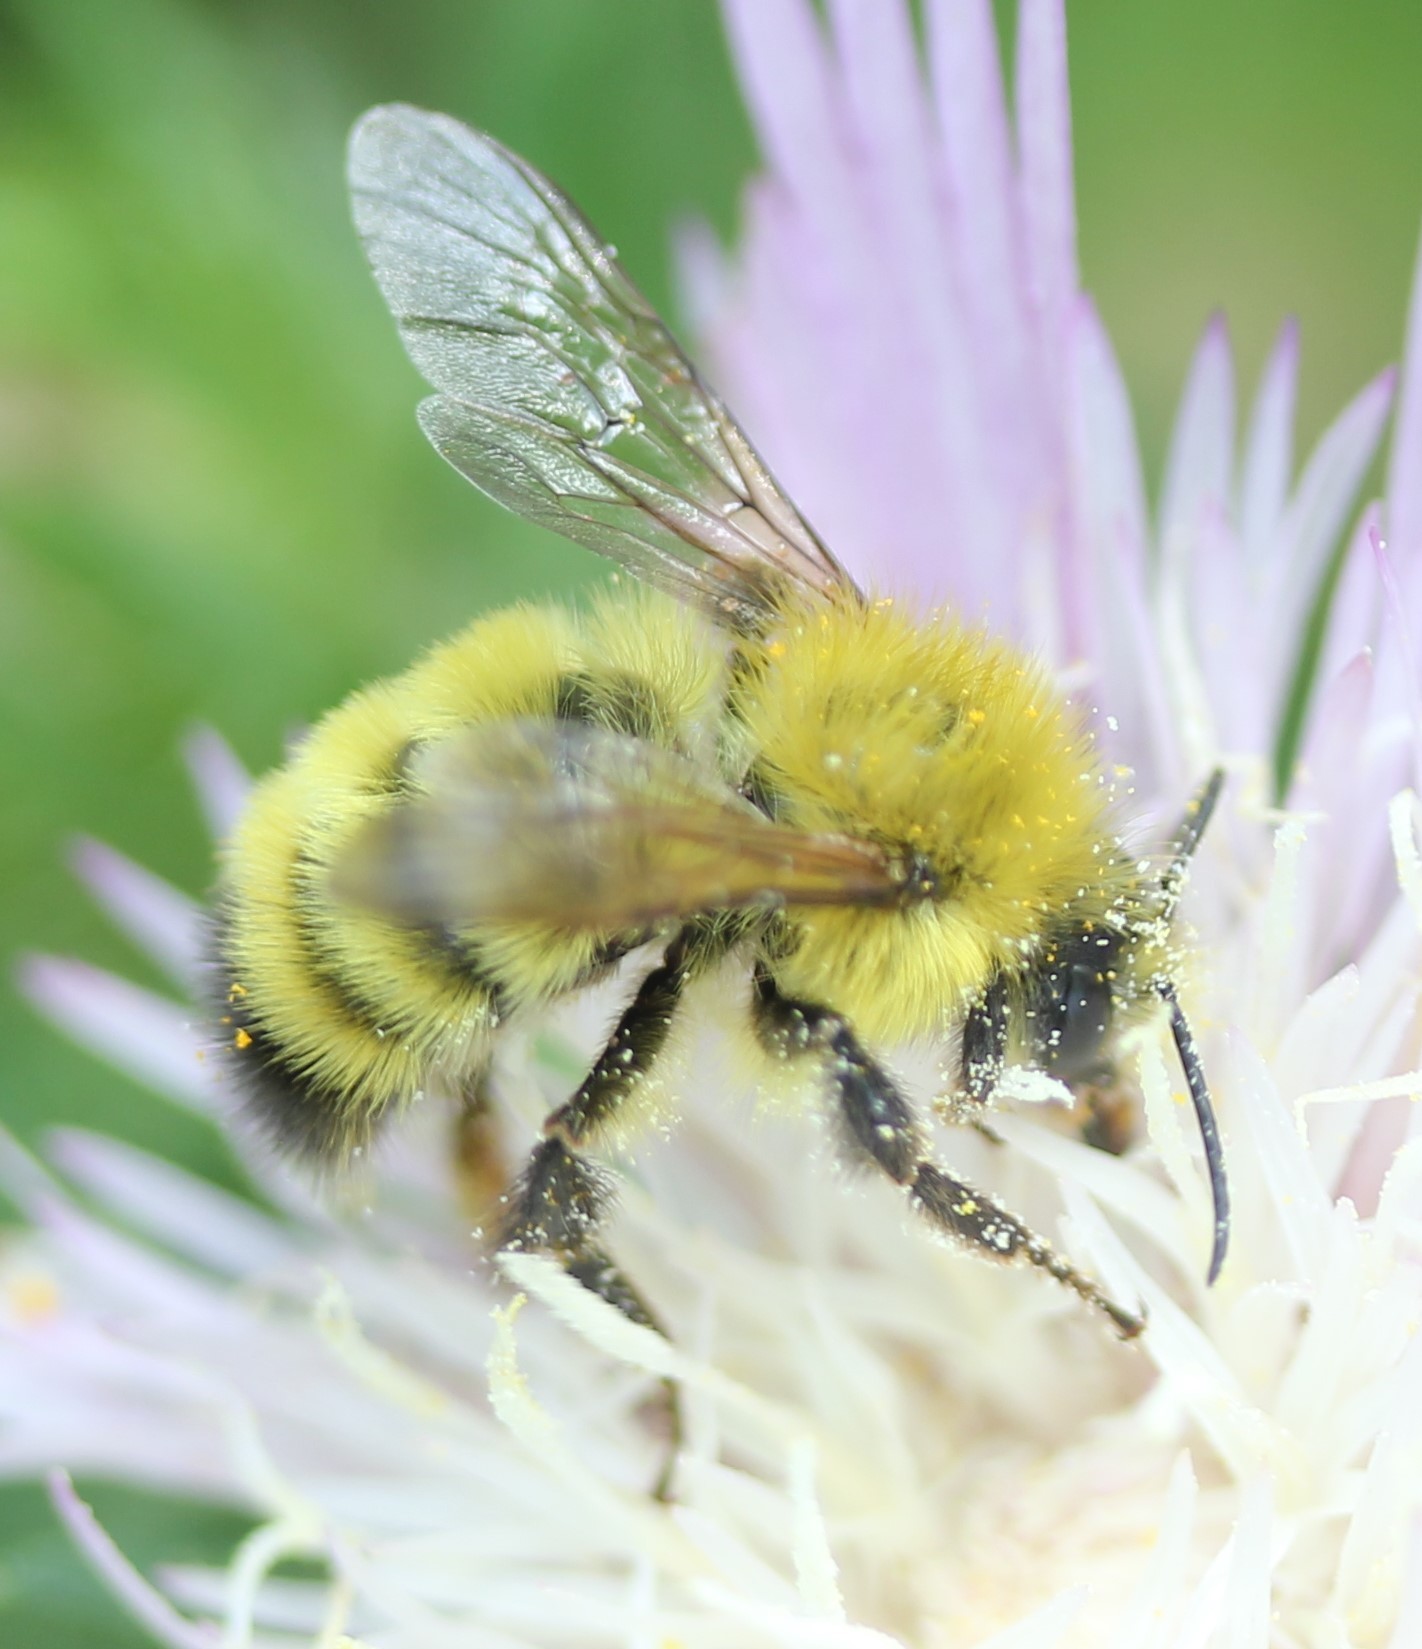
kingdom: Animalia
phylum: Arthropoda
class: Insecta
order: Hymenoptera
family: Apidae
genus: Bombus
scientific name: Bombus perplexus
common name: Confusing bumble bee
